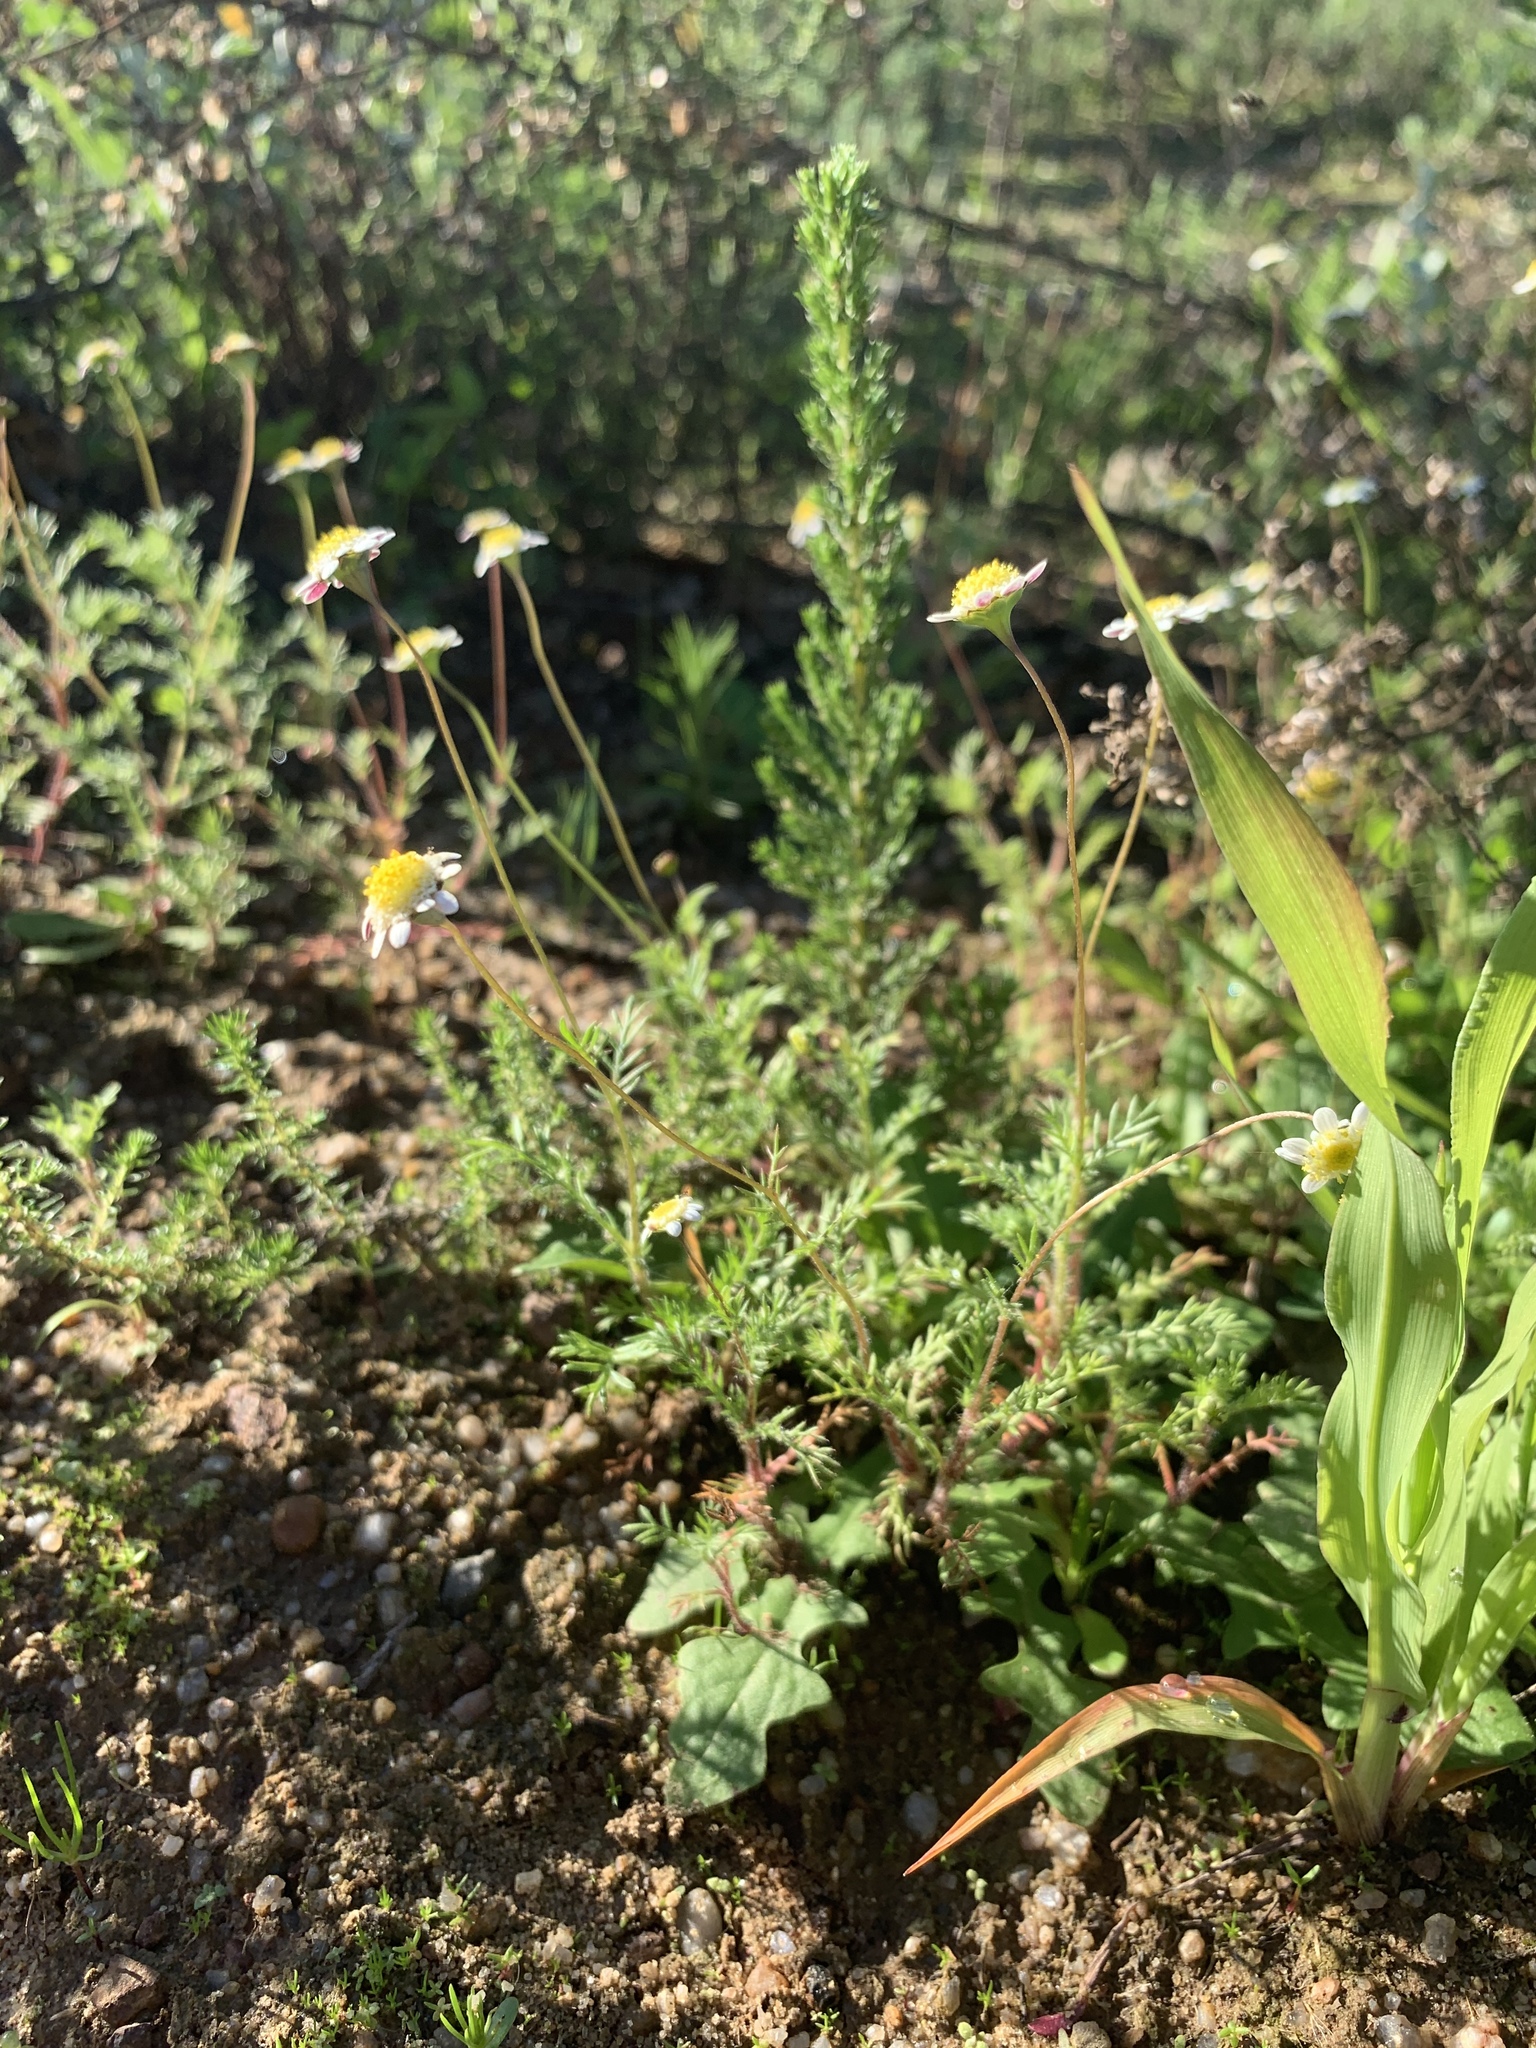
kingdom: Plantae
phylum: Tracheophyta
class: Magnoliopsida
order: Asterales
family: Asteraceae
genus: Cotula
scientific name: Cotula turbinata
